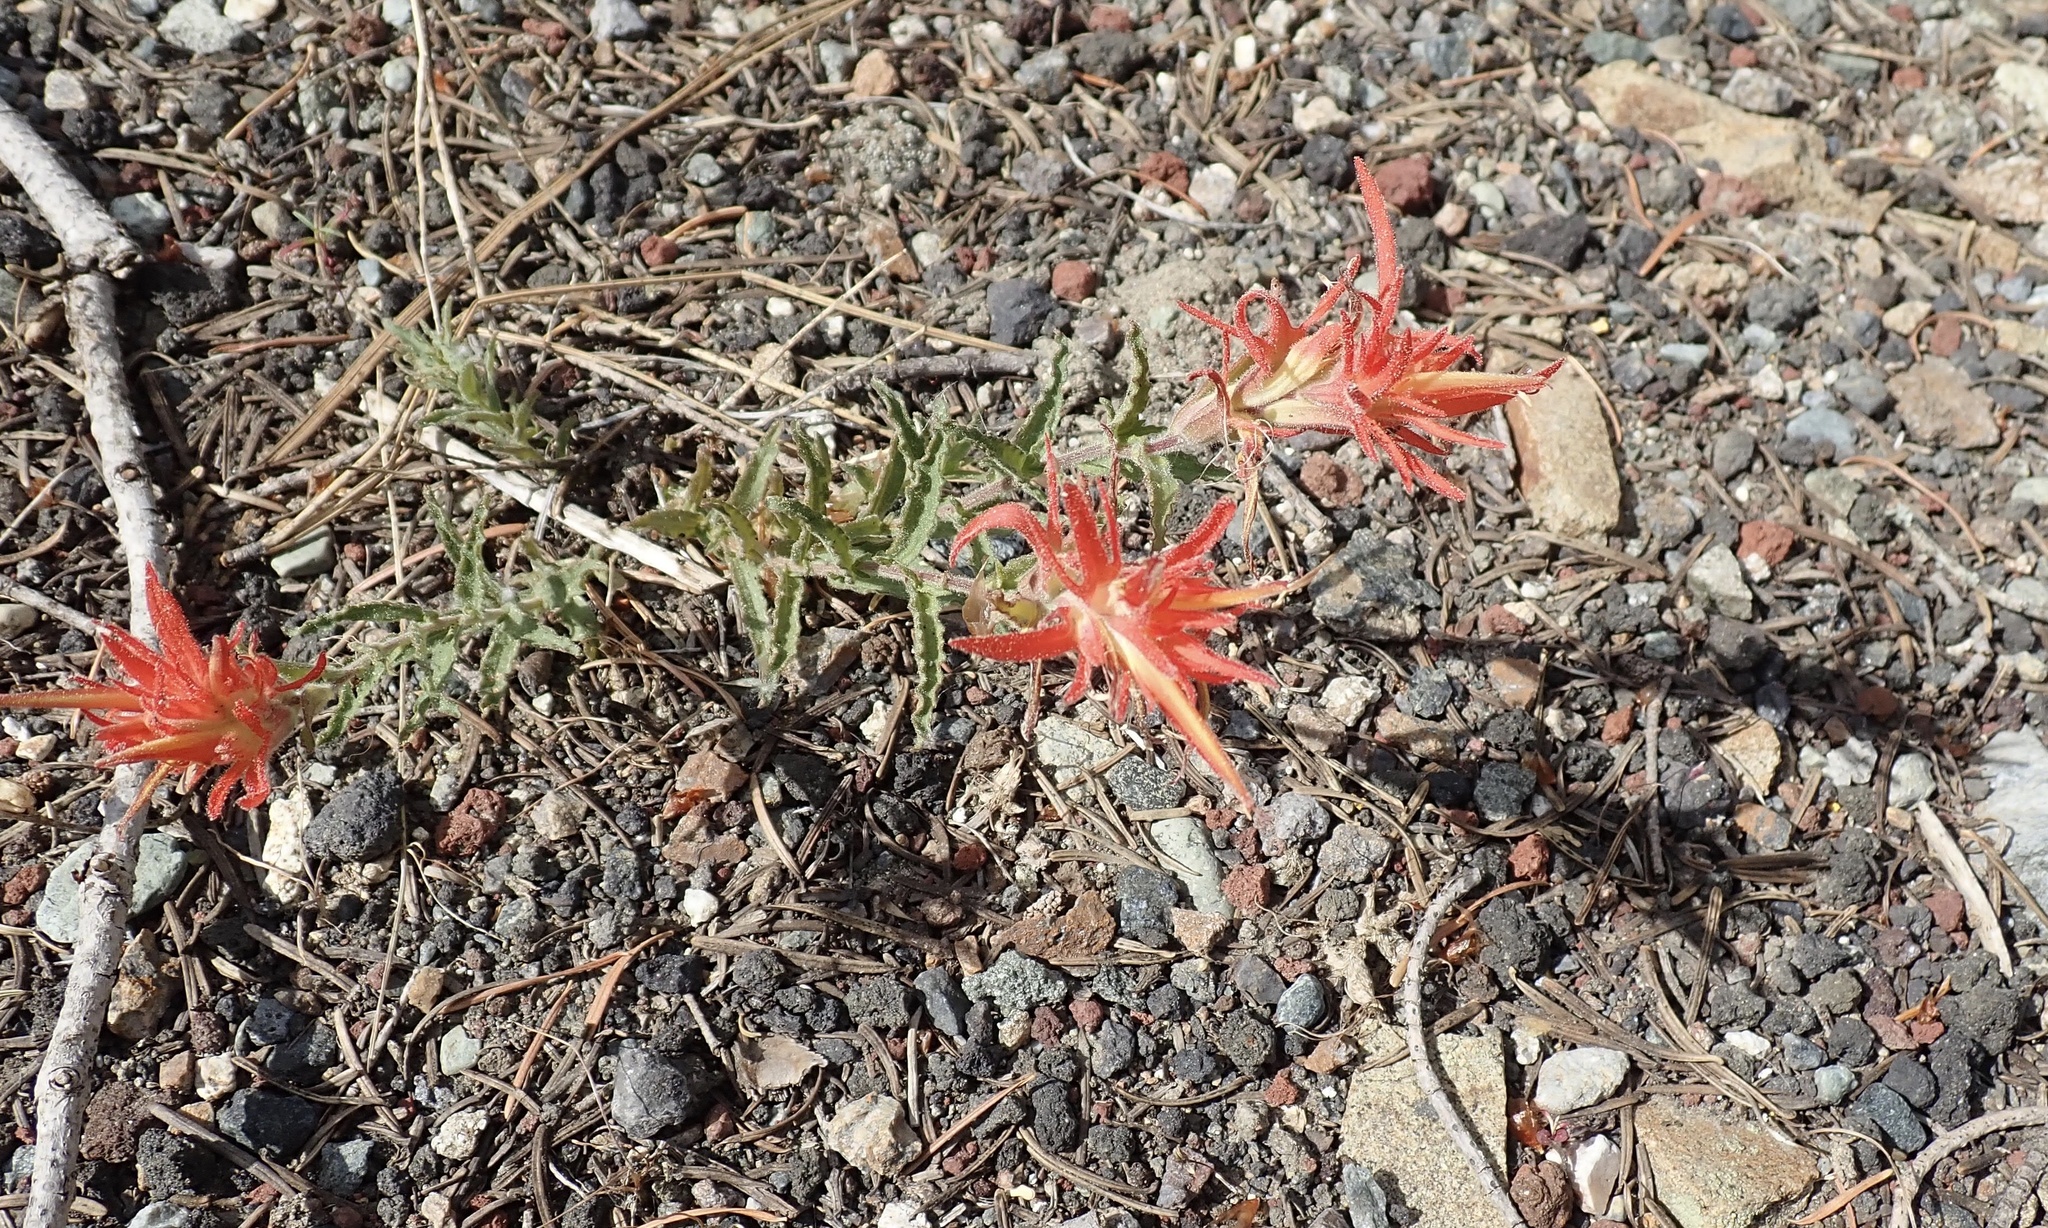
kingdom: Plantae
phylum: Tracheophyta
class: Magnoliopsida
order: Lamiales
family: Orobanchaceae
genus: Castilleja
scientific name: Castilleja applegatei
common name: Wavy-leaf paintbrush
